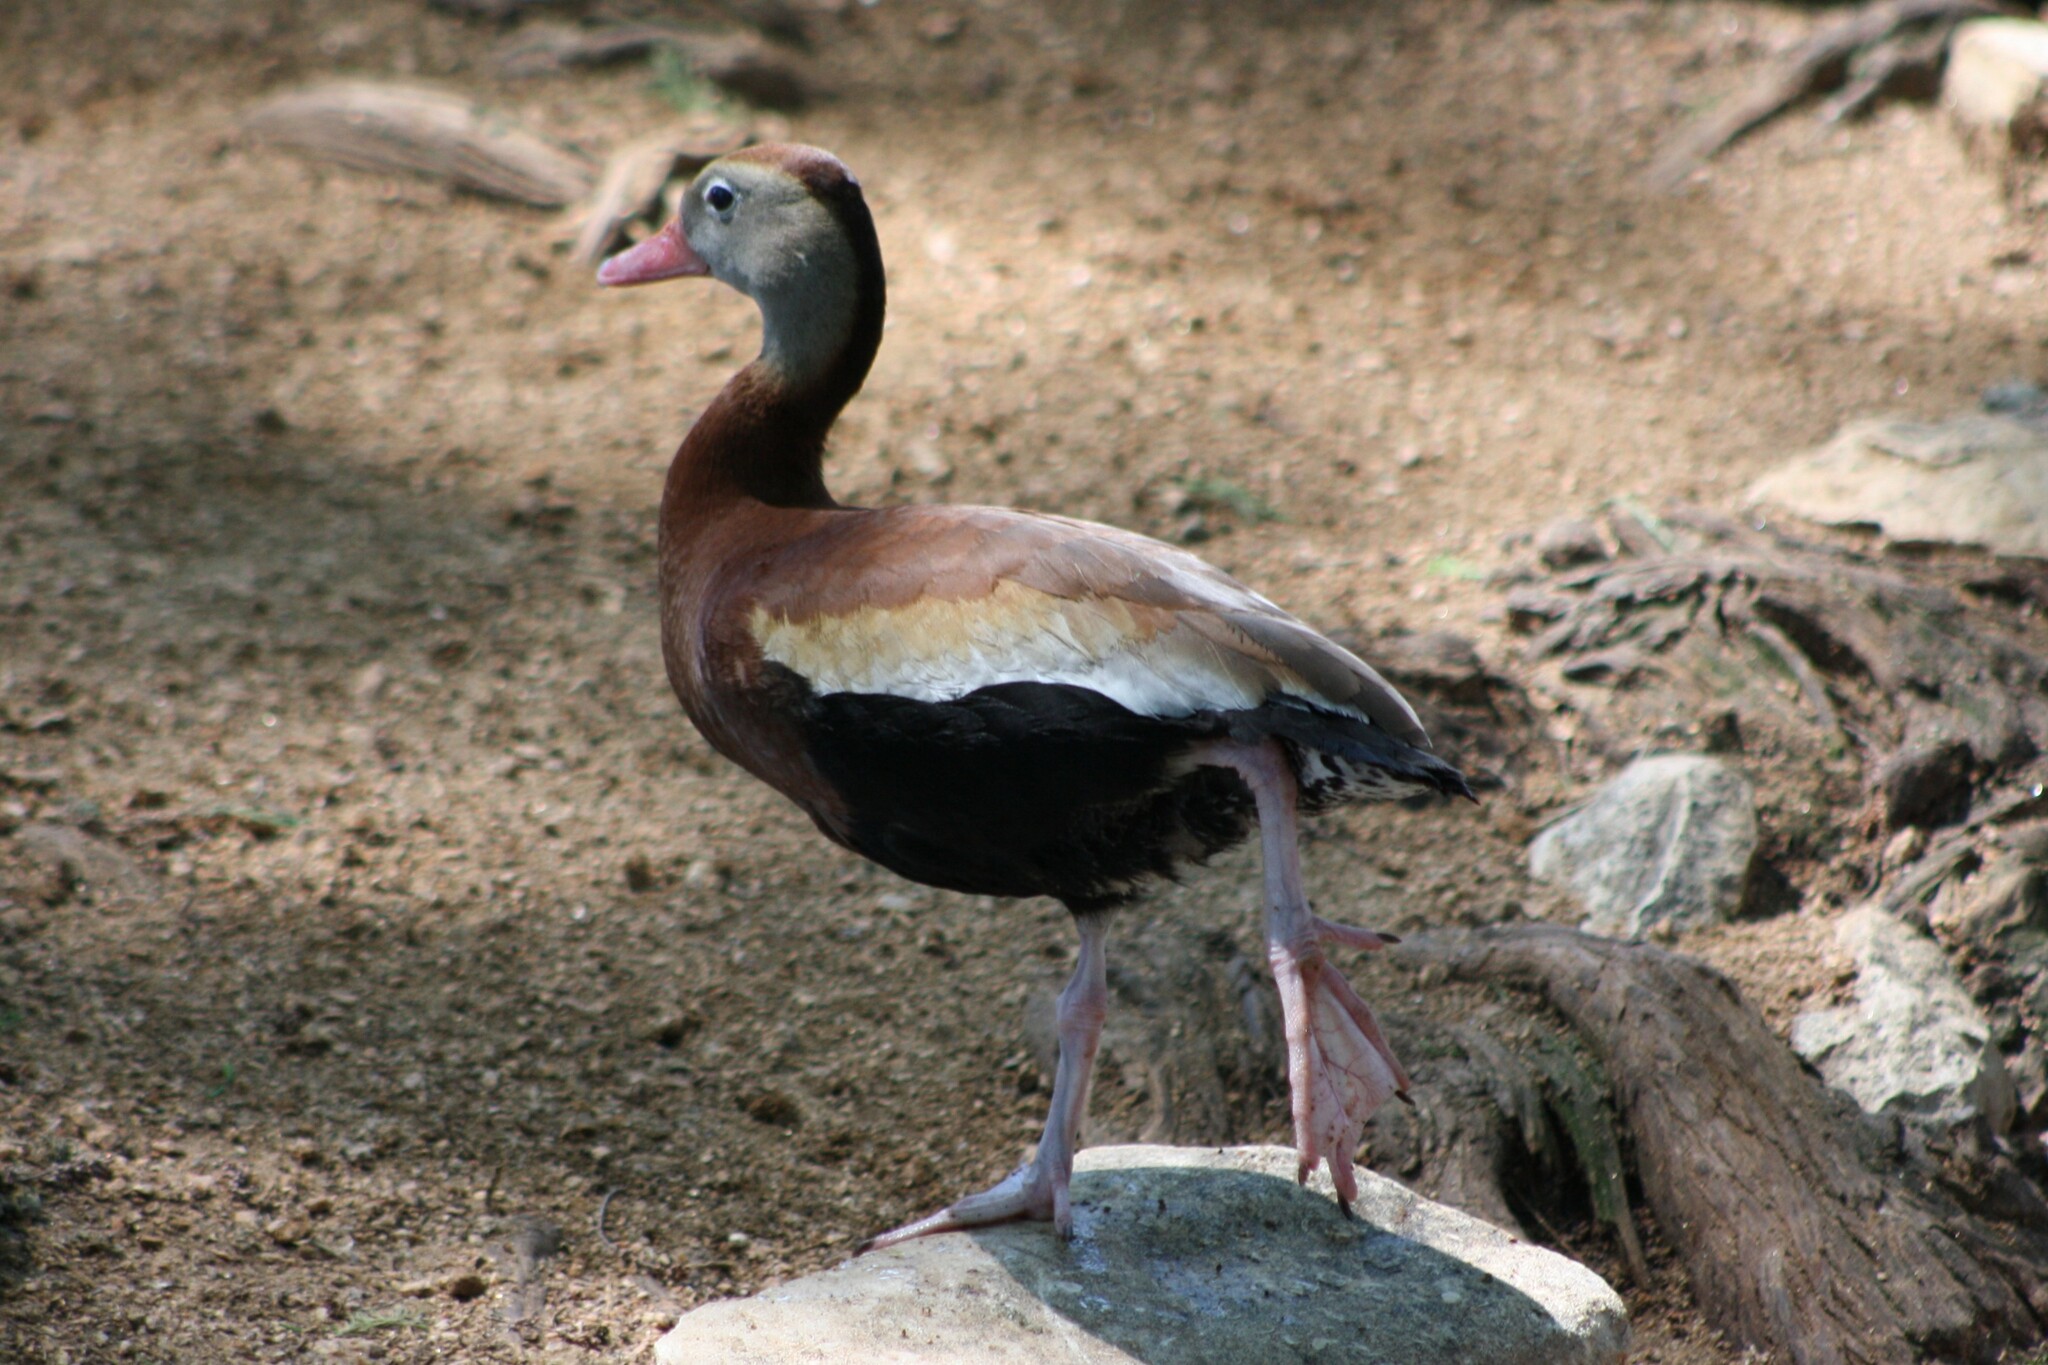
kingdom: Animalia
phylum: Chordata
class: Aves
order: Anseriformes
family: Anatidae
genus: Dendrocygna
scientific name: Dendrocygna autumnalis
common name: Black-bellied whistling duck
